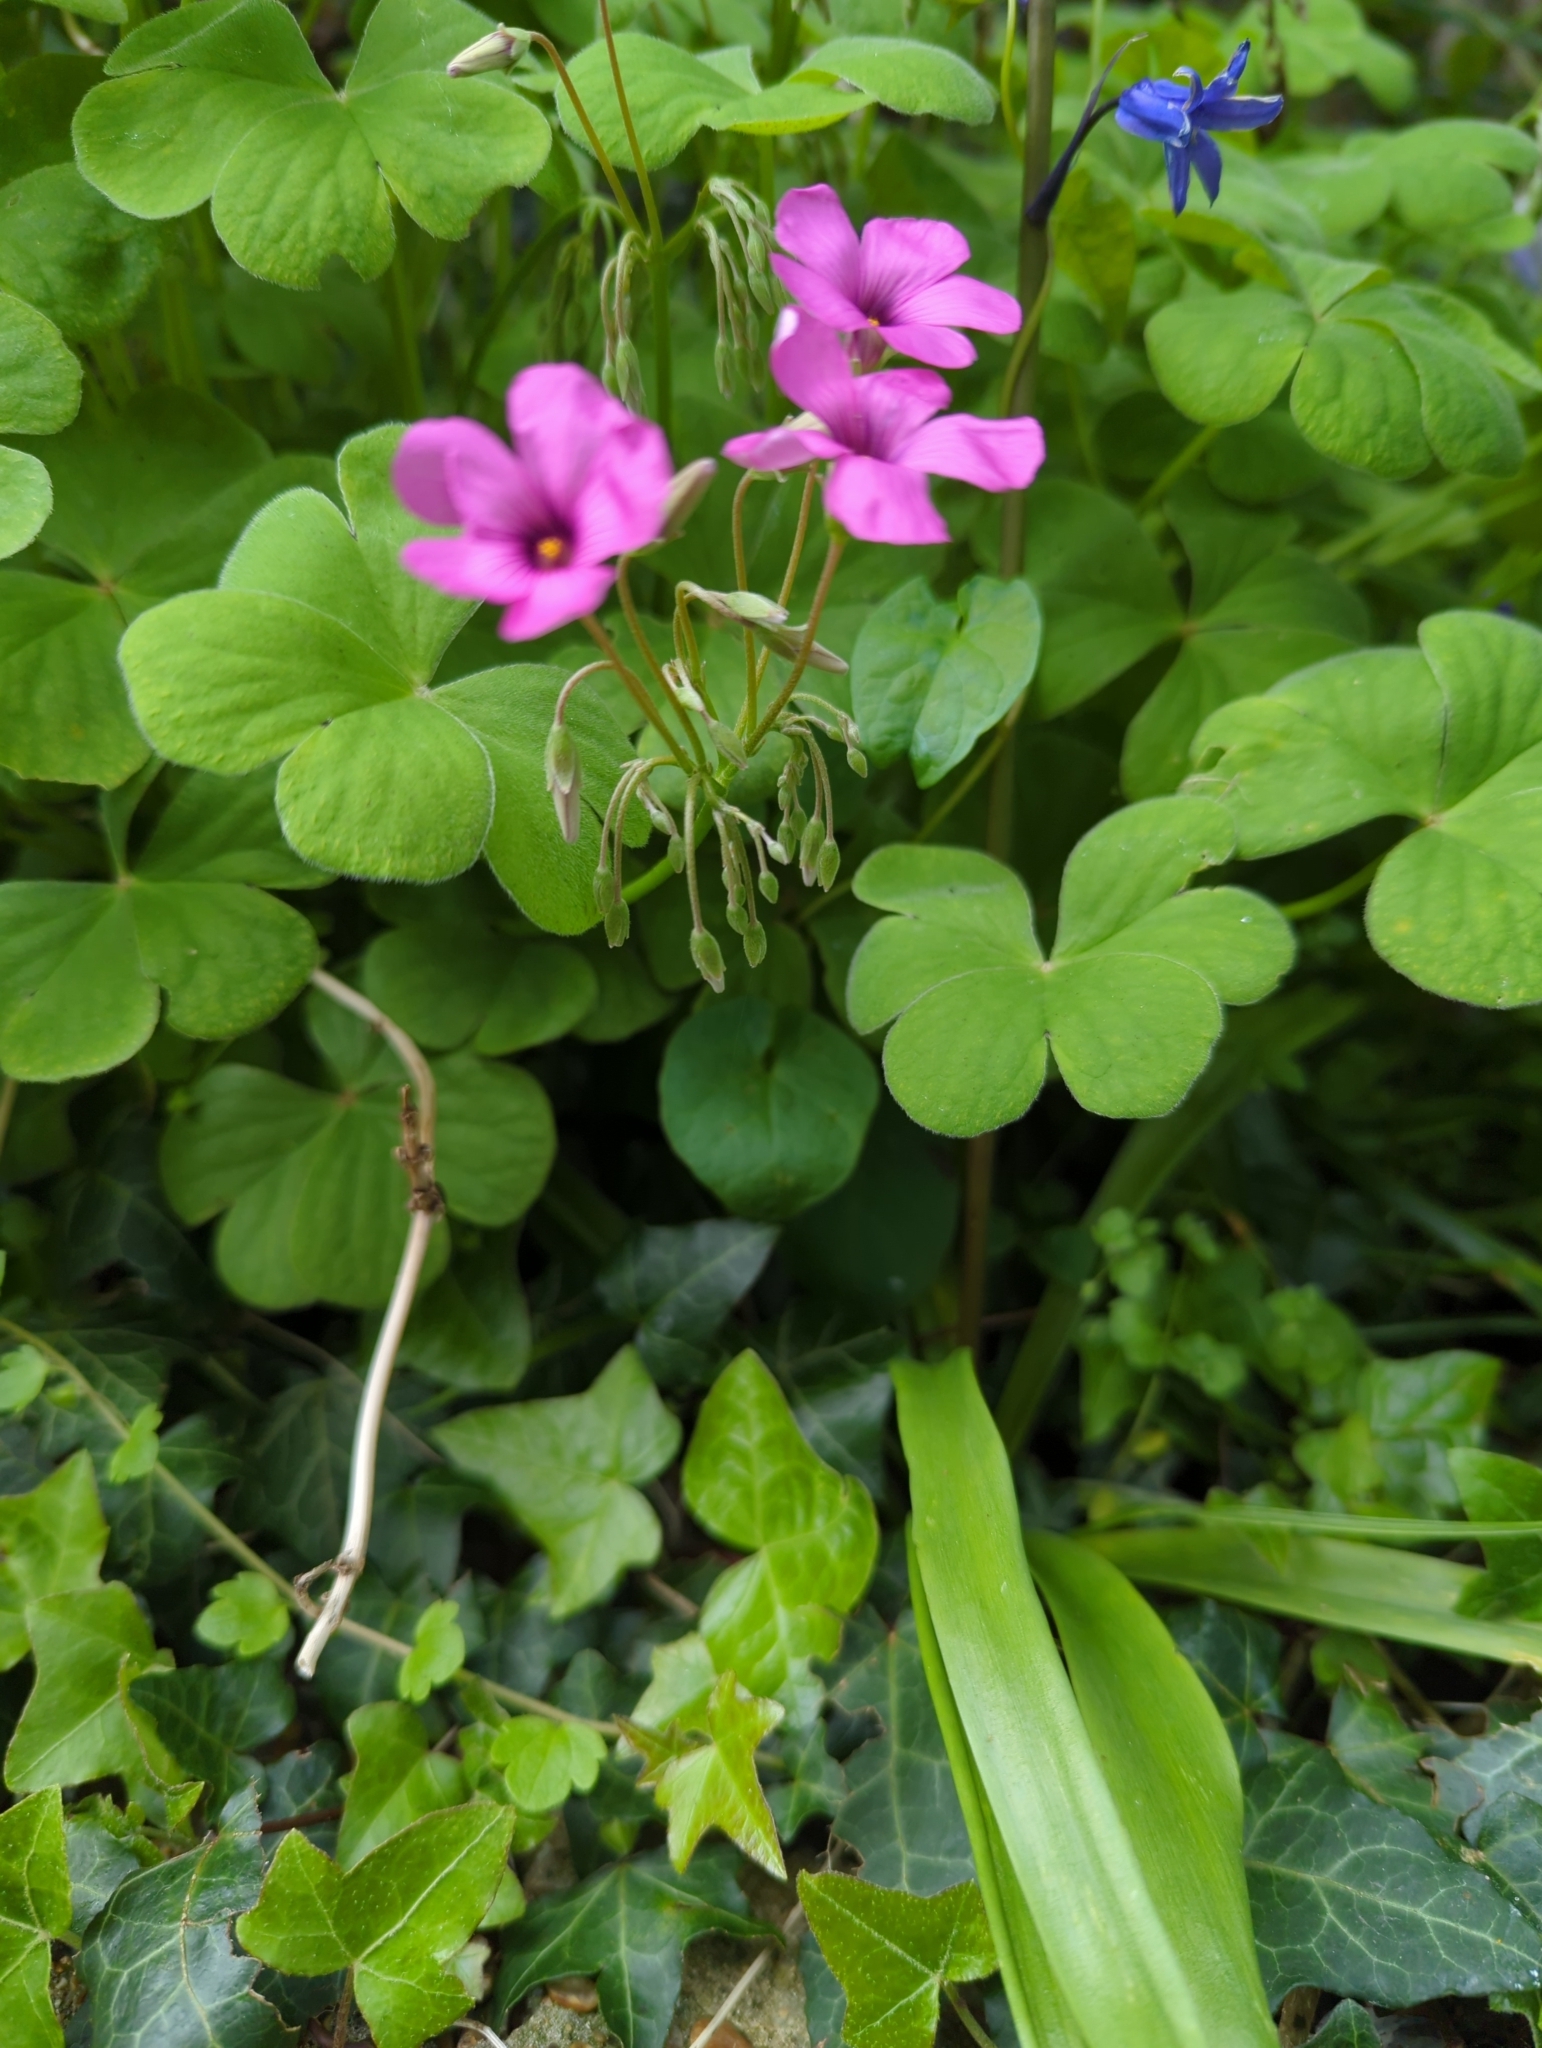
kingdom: Plantae
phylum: Tracheophyta
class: Magnoliopsida
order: Oxalidales
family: Oxalidaceae
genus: Oxalis
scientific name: Oxalis articulata
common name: Pink-sorrel
